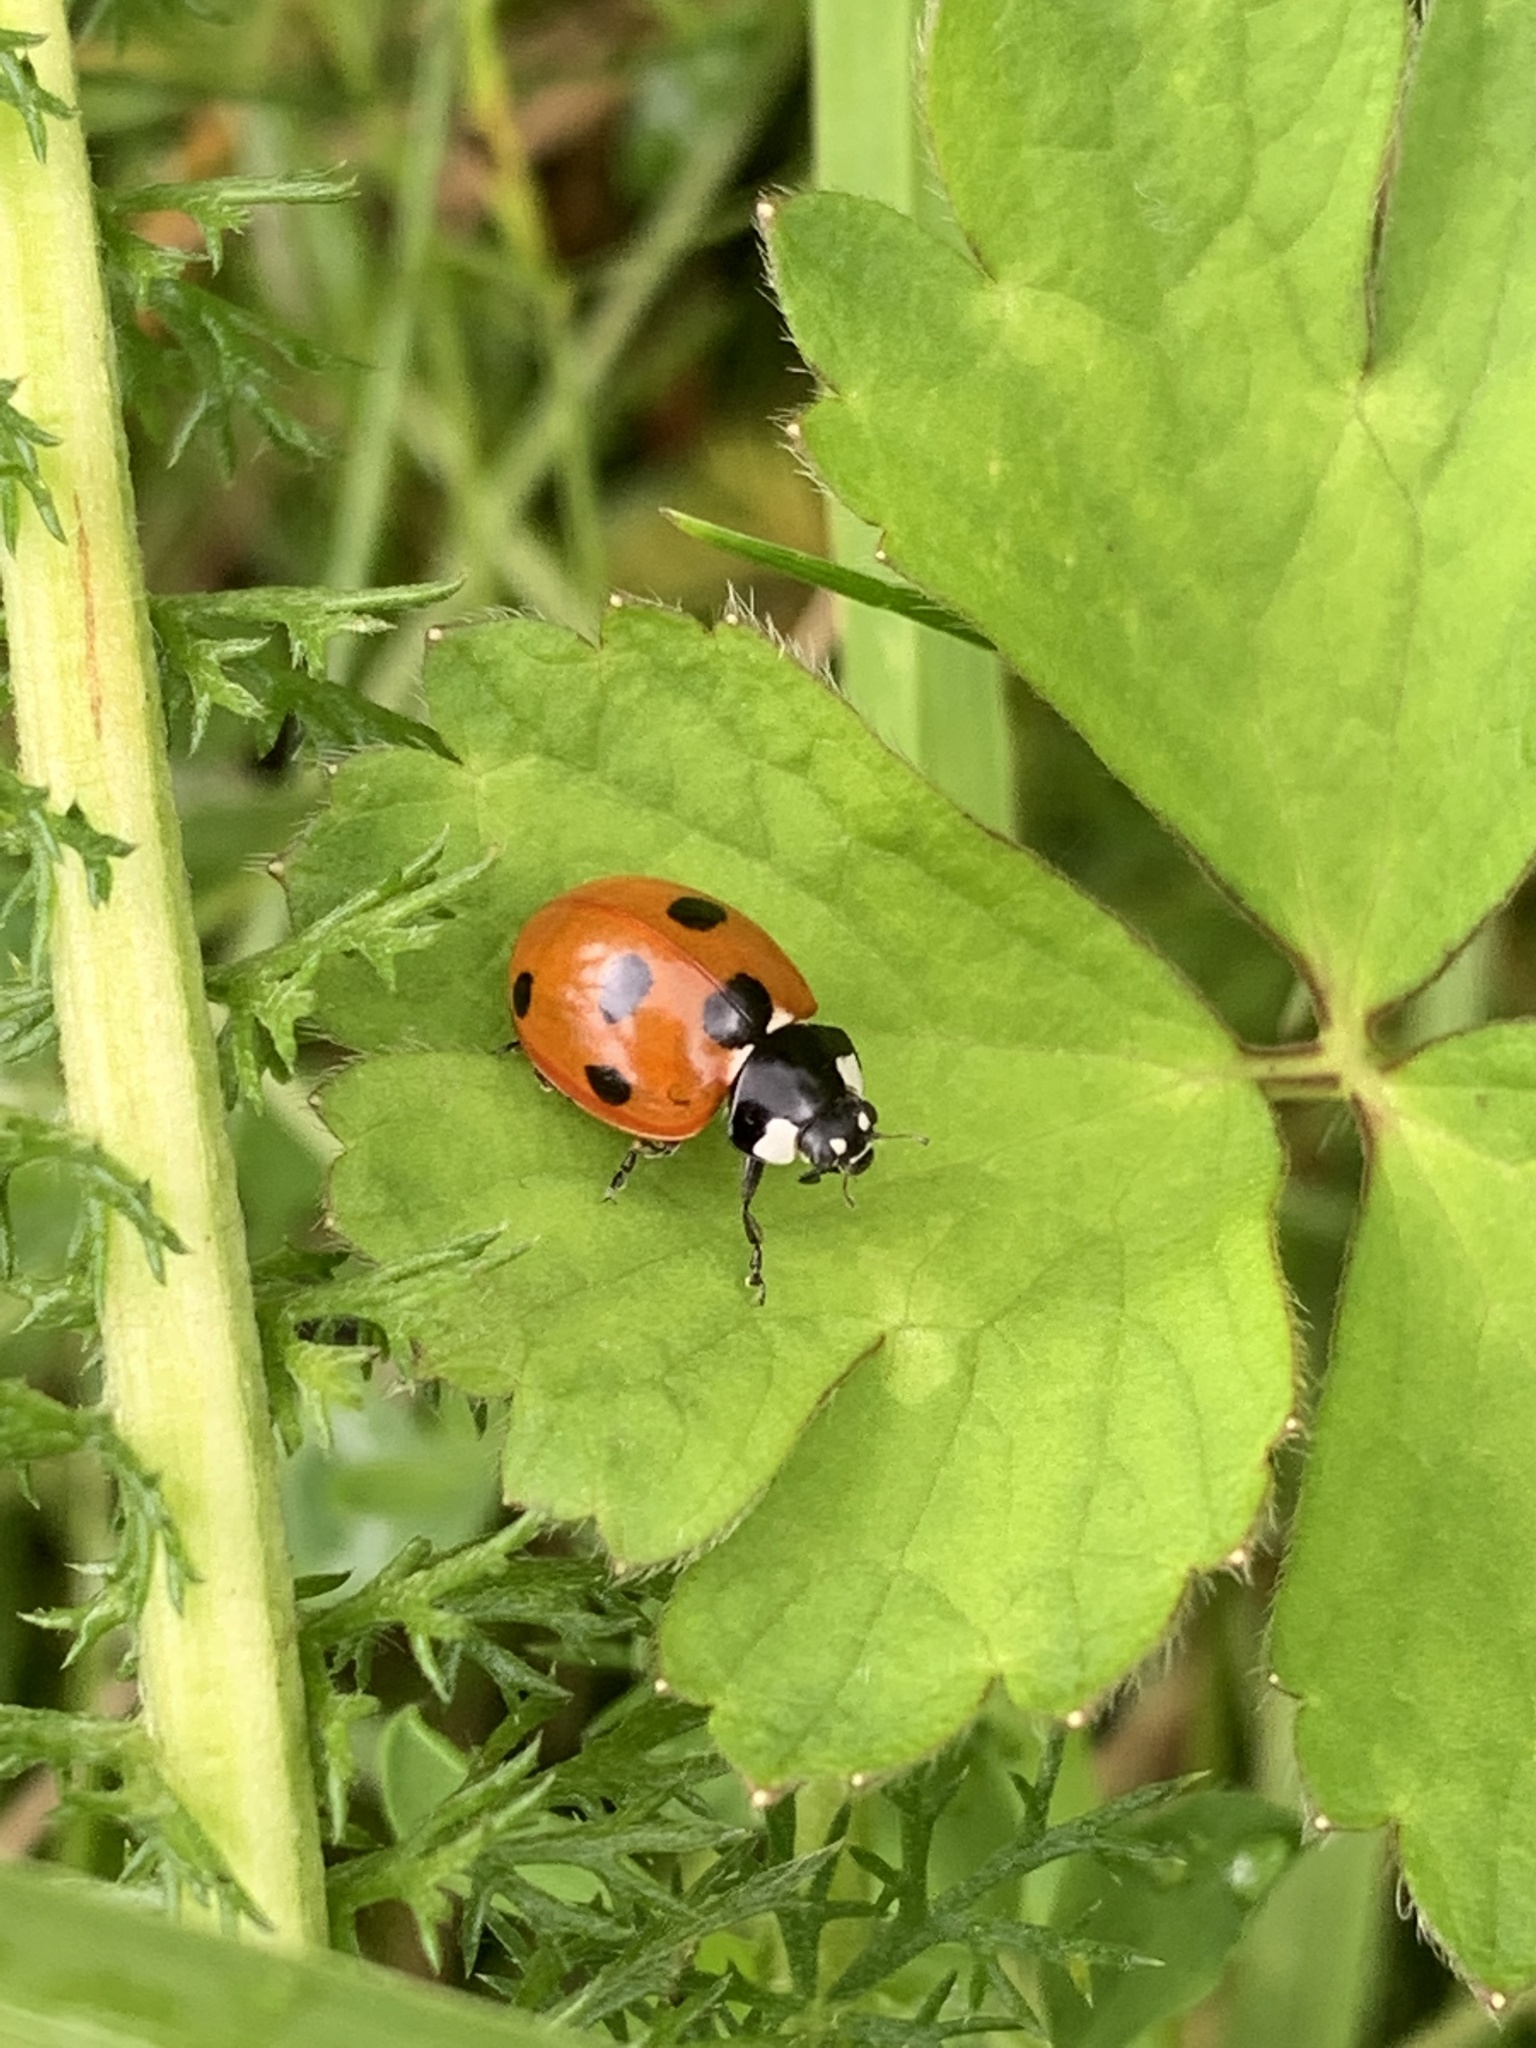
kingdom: Animalia
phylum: Arthropoda
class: Insecta
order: Coleoptera
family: Coccinellidae
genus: Coccinella
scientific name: Coccinella septempunctata
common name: Sevenspotted lady beetle
